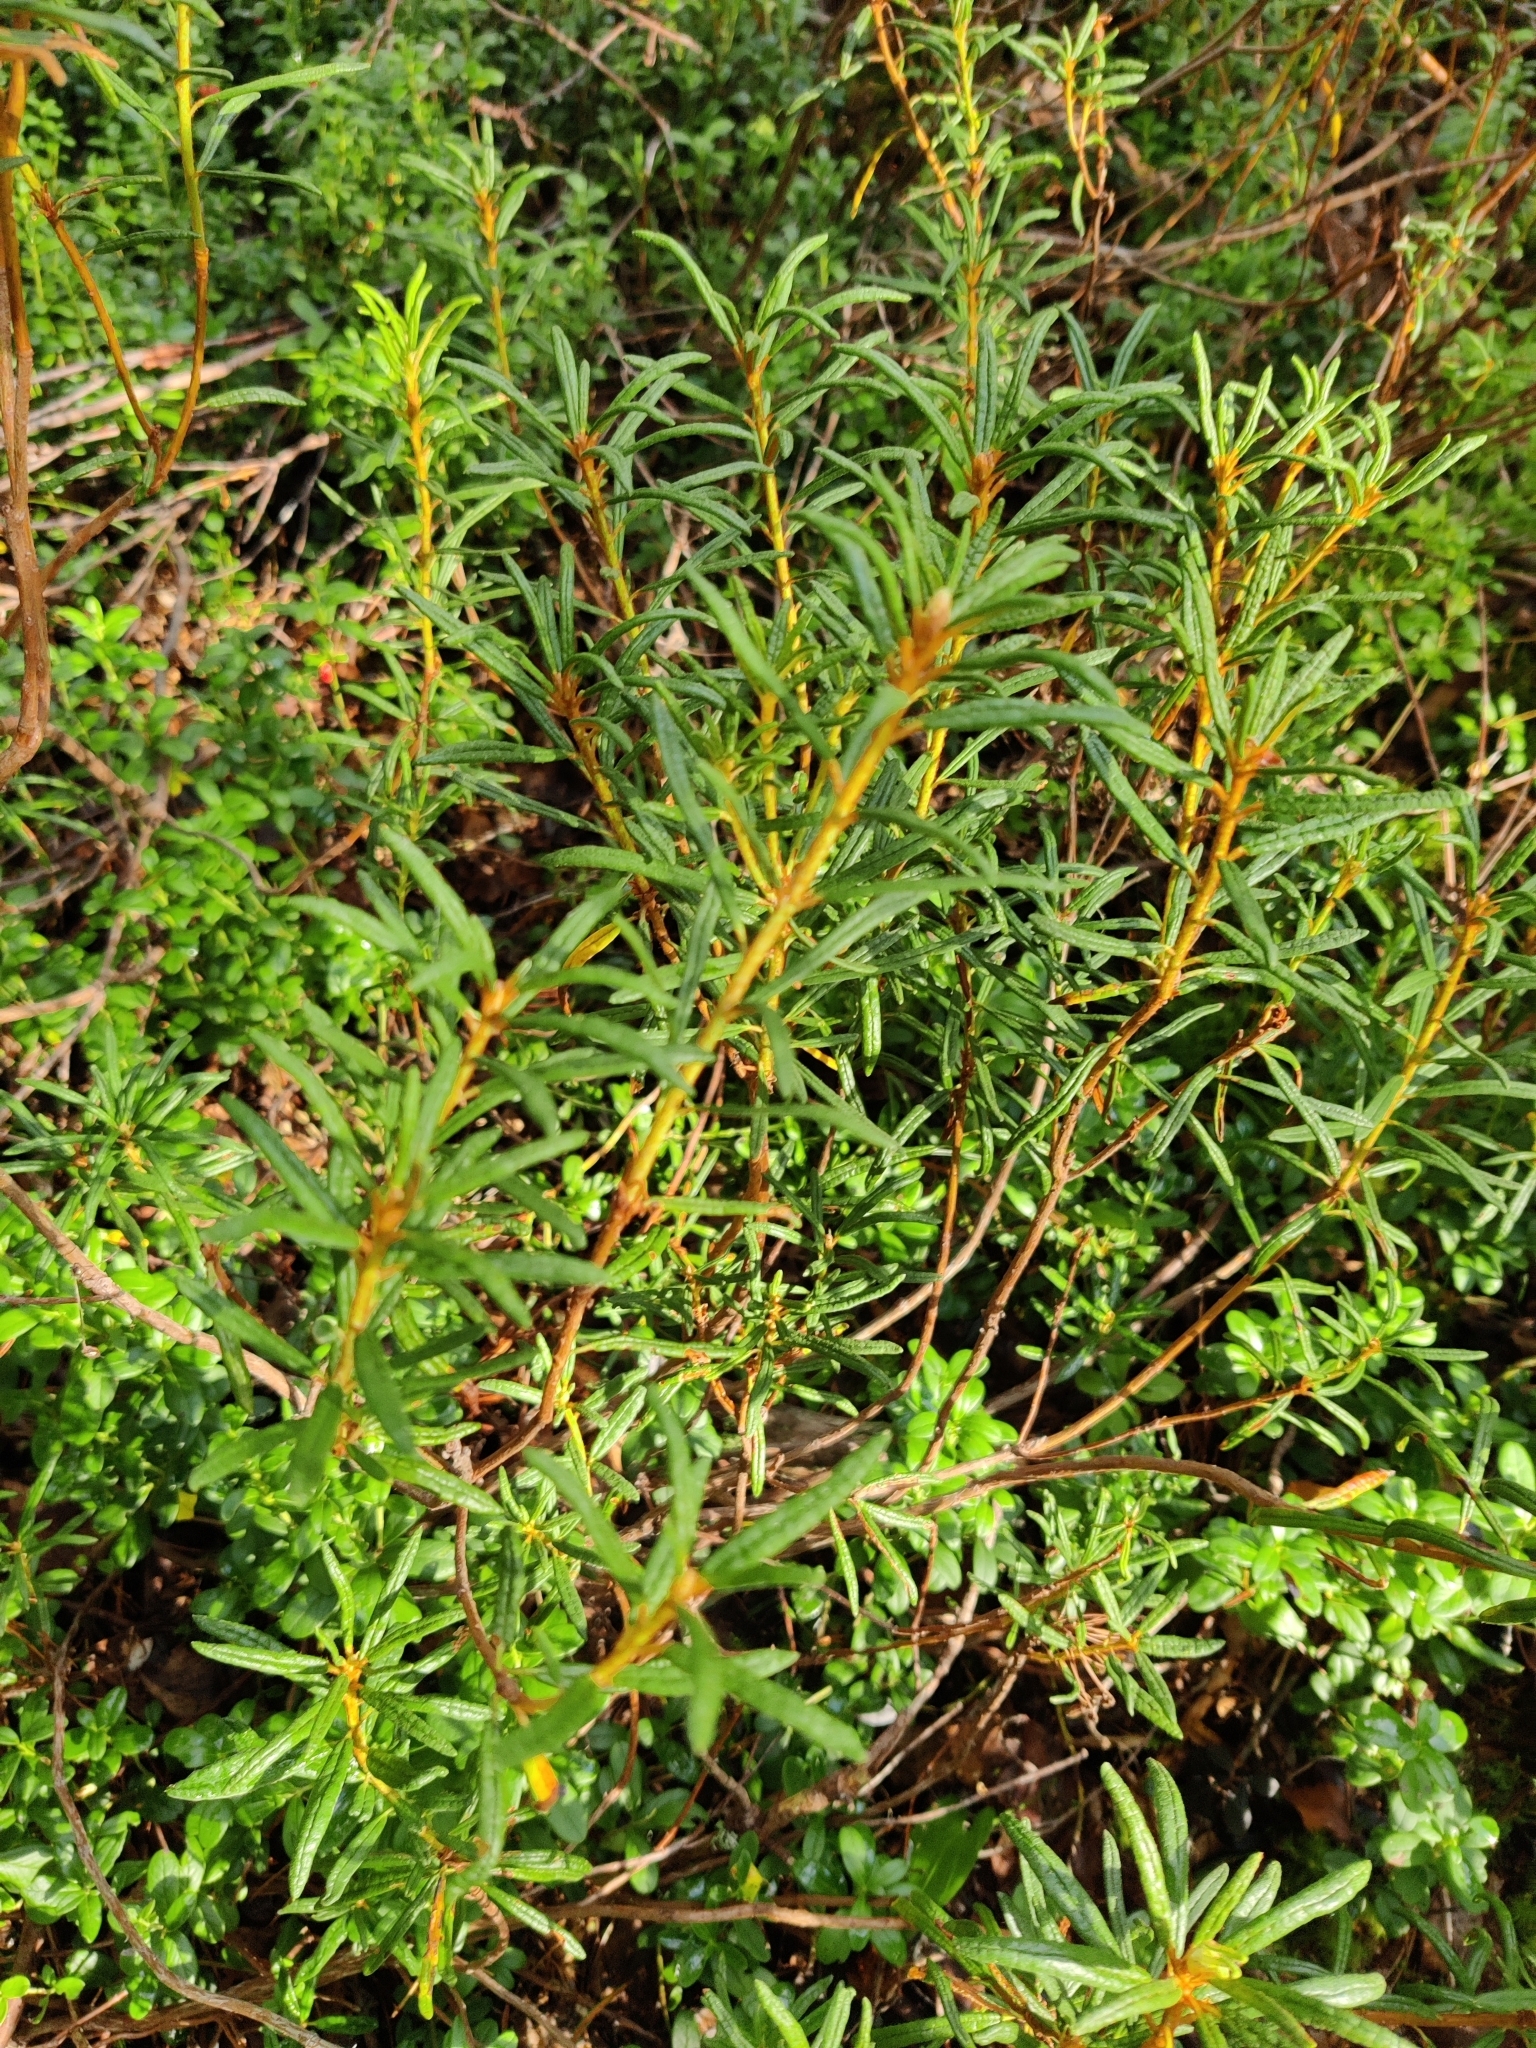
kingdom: Plantae
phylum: Tracheophyta
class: Magnoliopsida
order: Ericales
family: Ericaceae
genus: Rhododendron
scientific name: Rhododendron tomentosum
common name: Marsh labrador tea
